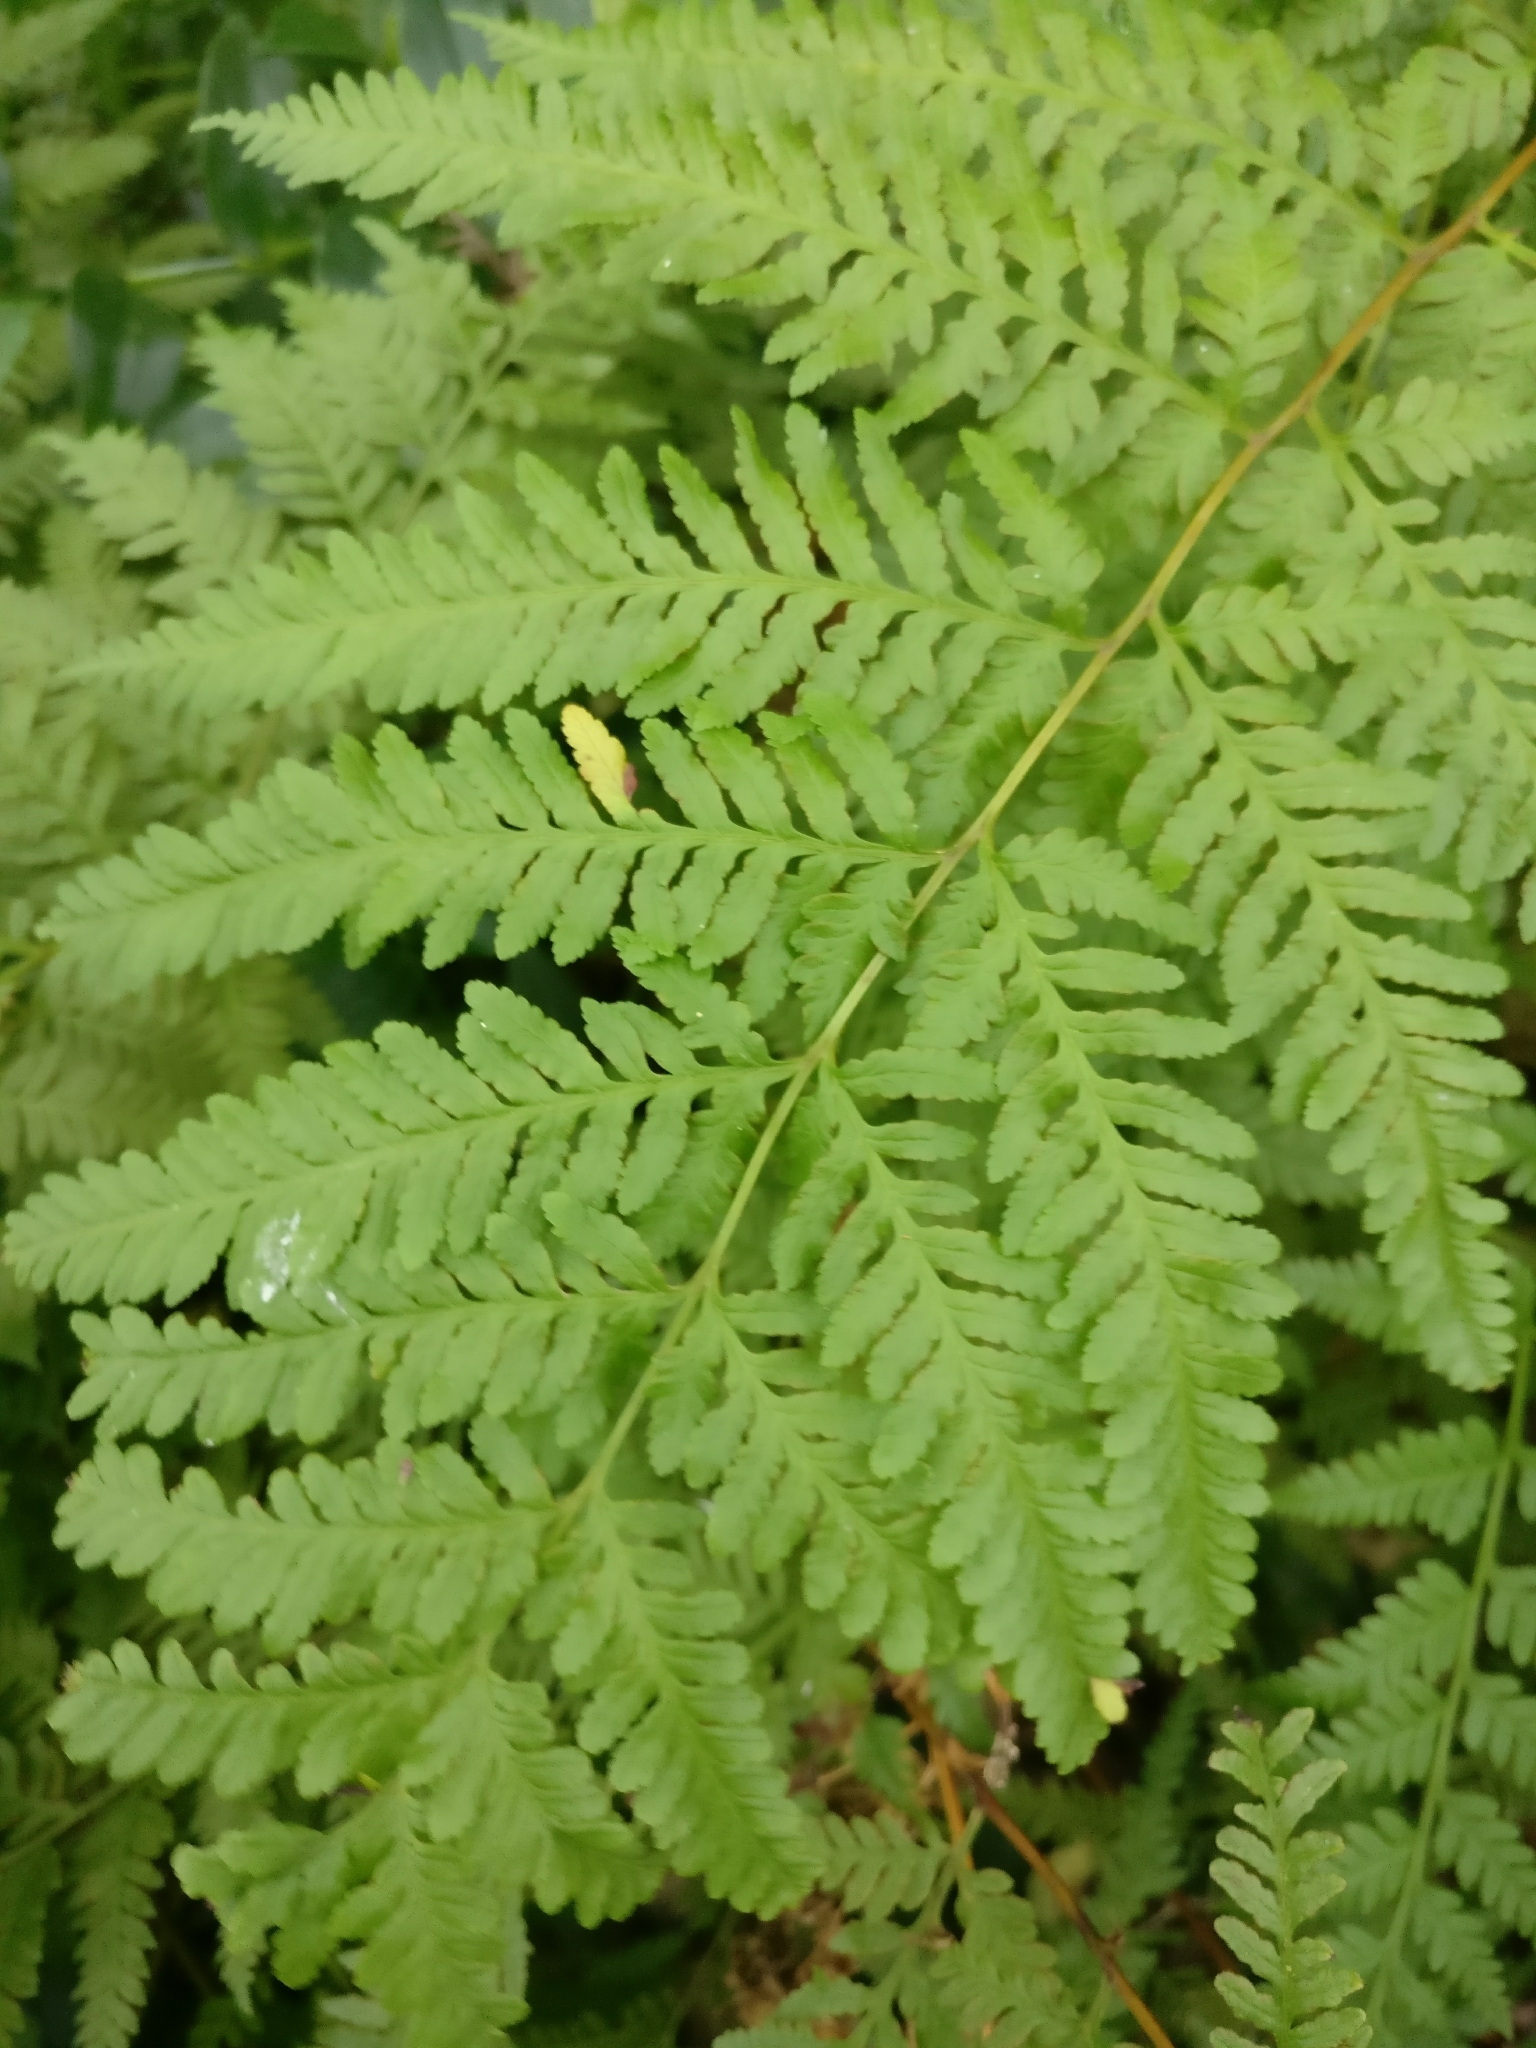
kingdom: Plantae
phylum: Tracheophyta
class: Polypodiopsida
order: Polypodiales
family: Pteridaceae
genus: Pteris
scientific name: Pteris tremula
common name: Australian brake
